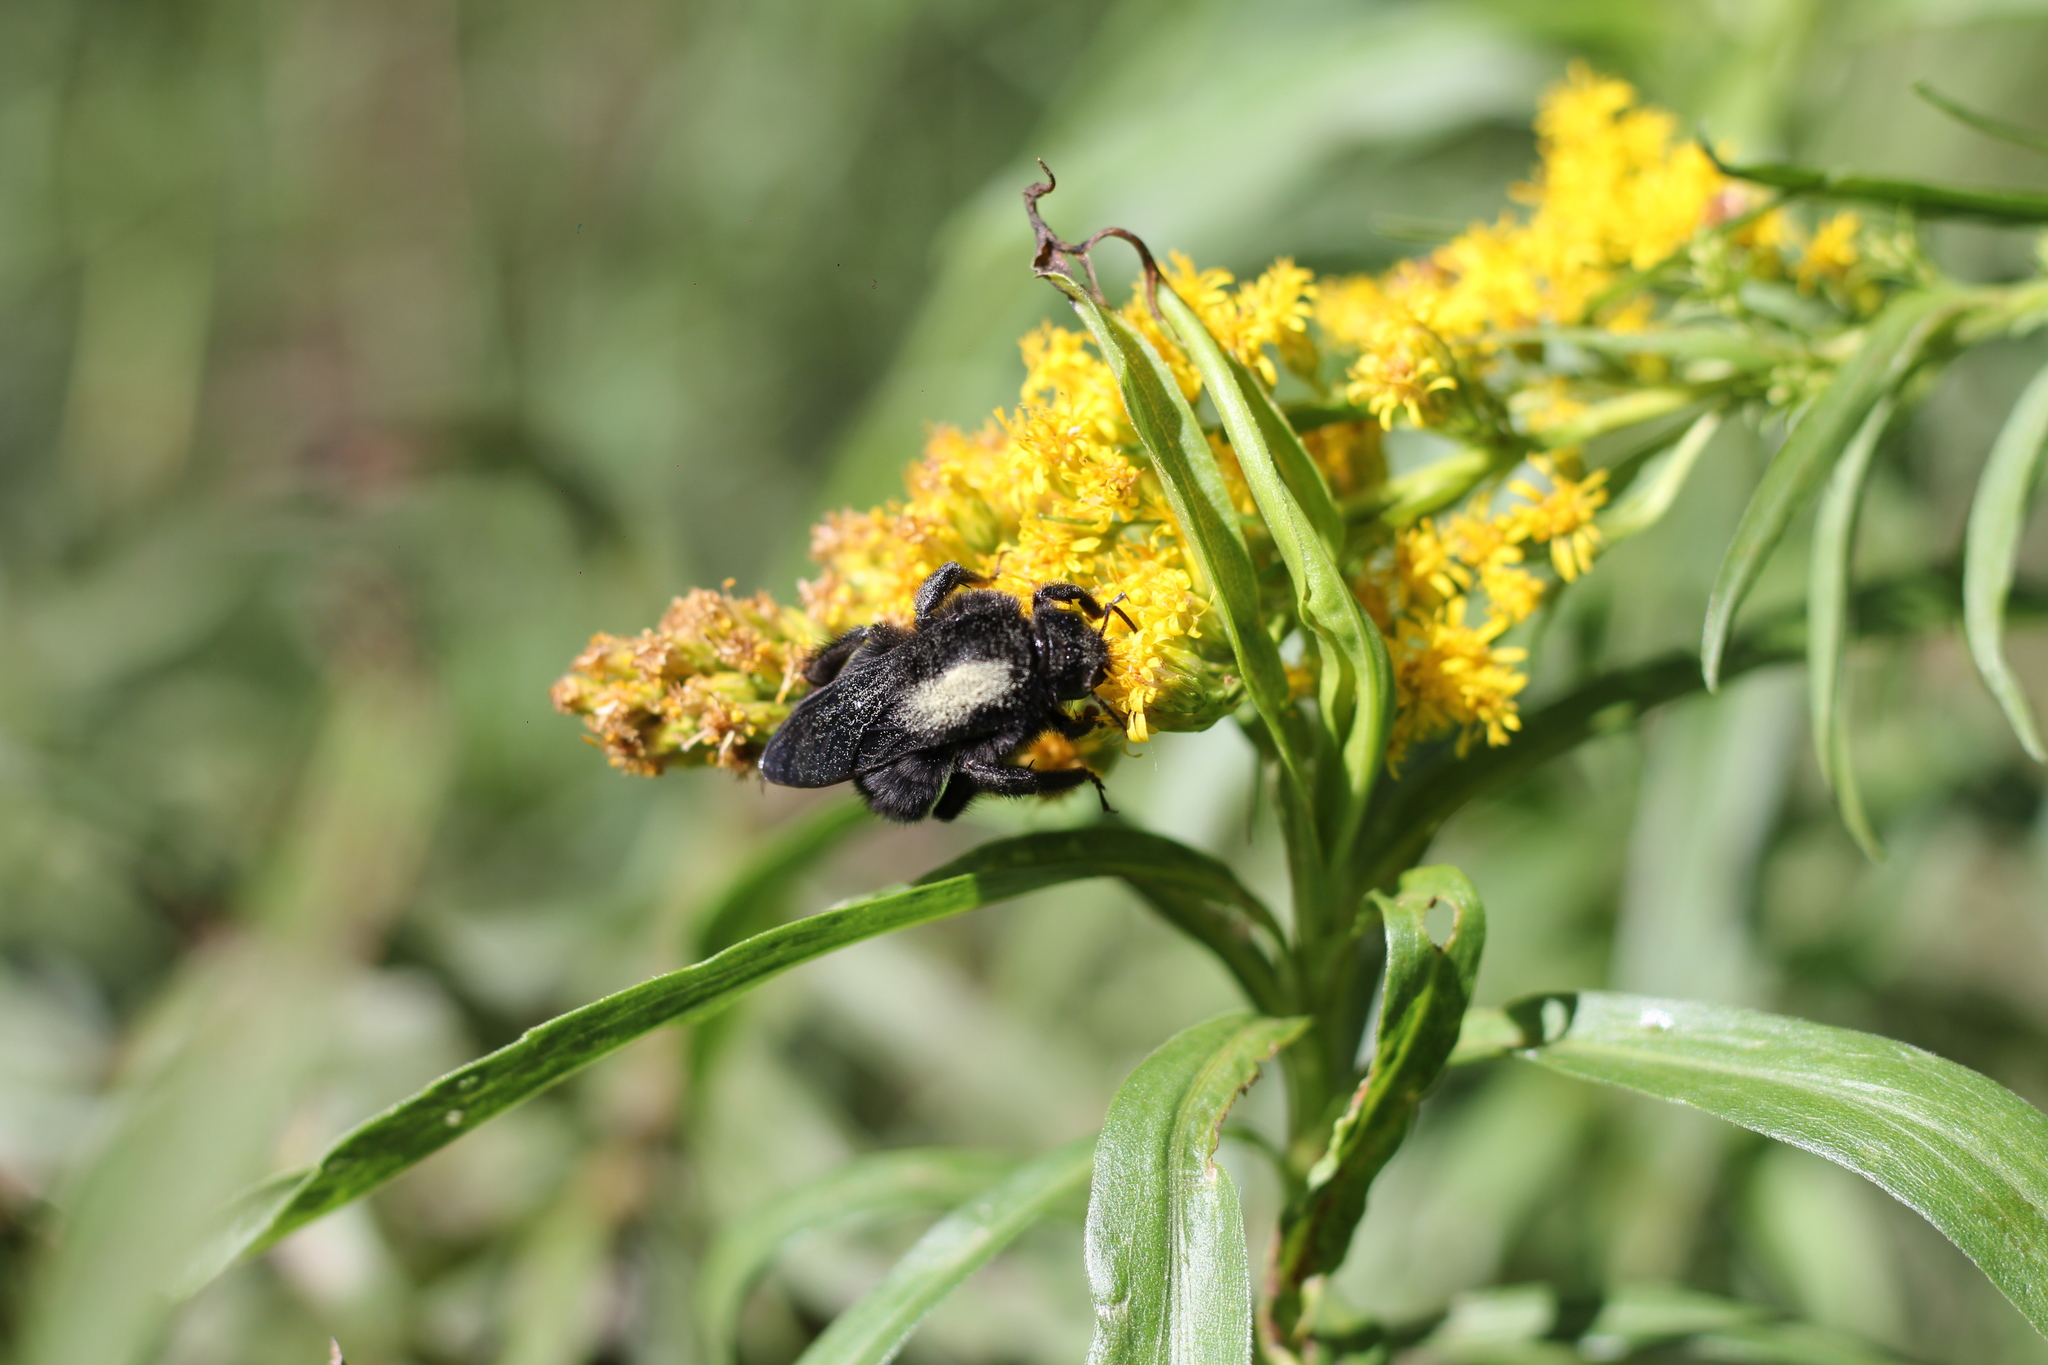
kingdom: Animalia
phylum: Arthropoda
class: Insecta
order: Hymenoptera
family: Apidae
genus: Bombus
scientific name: Bombus pauloensis
